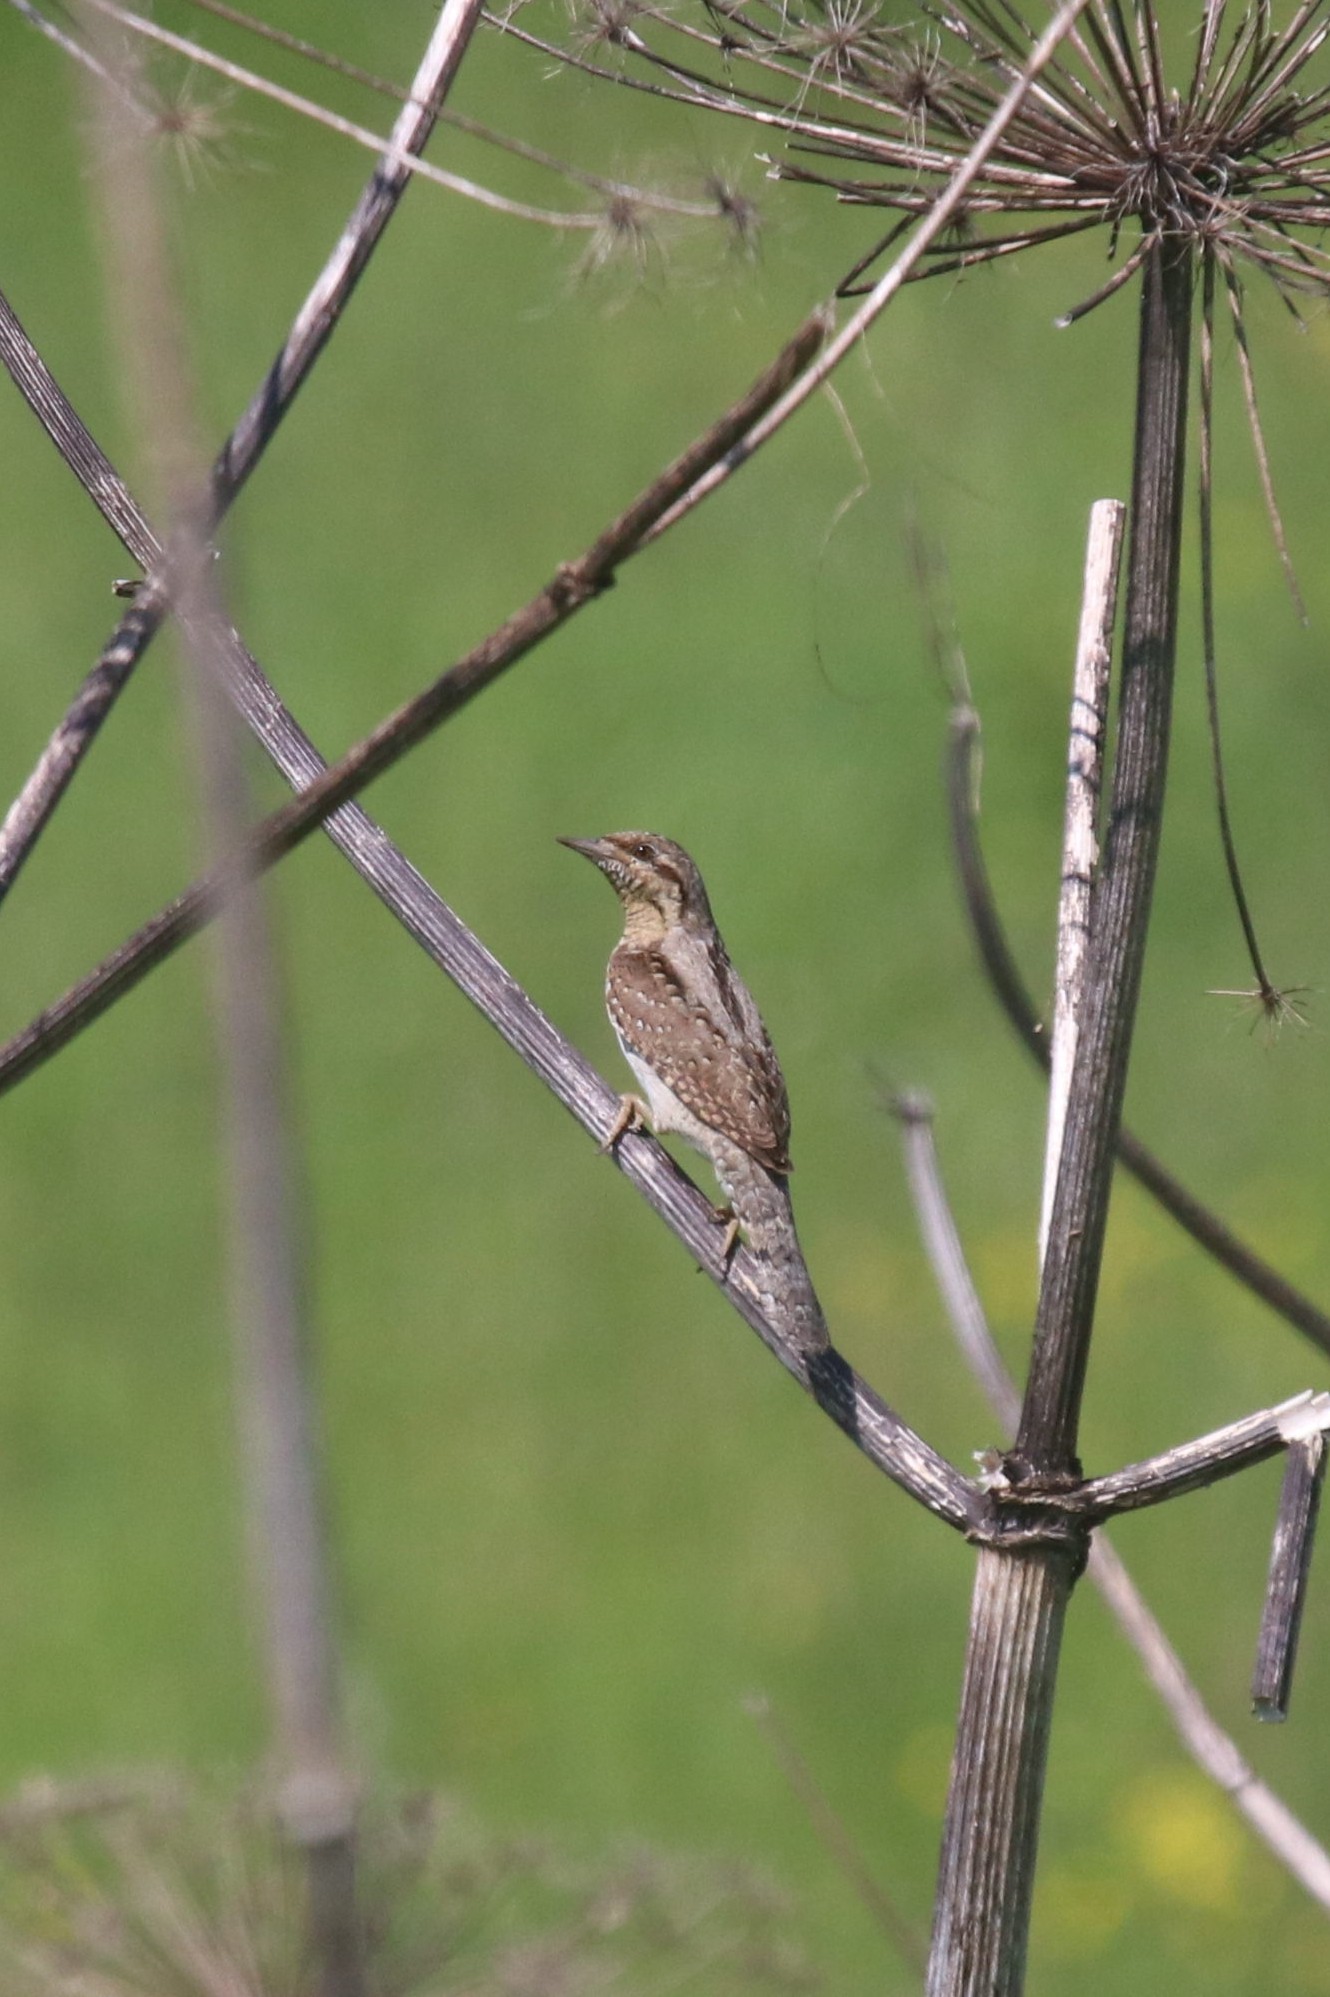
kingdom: Animalia
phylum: Chordata
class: Aves
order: Piciformes
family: Picidae
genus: Jynx
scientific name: Jynx torquilla
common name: Eurasian wryneck
